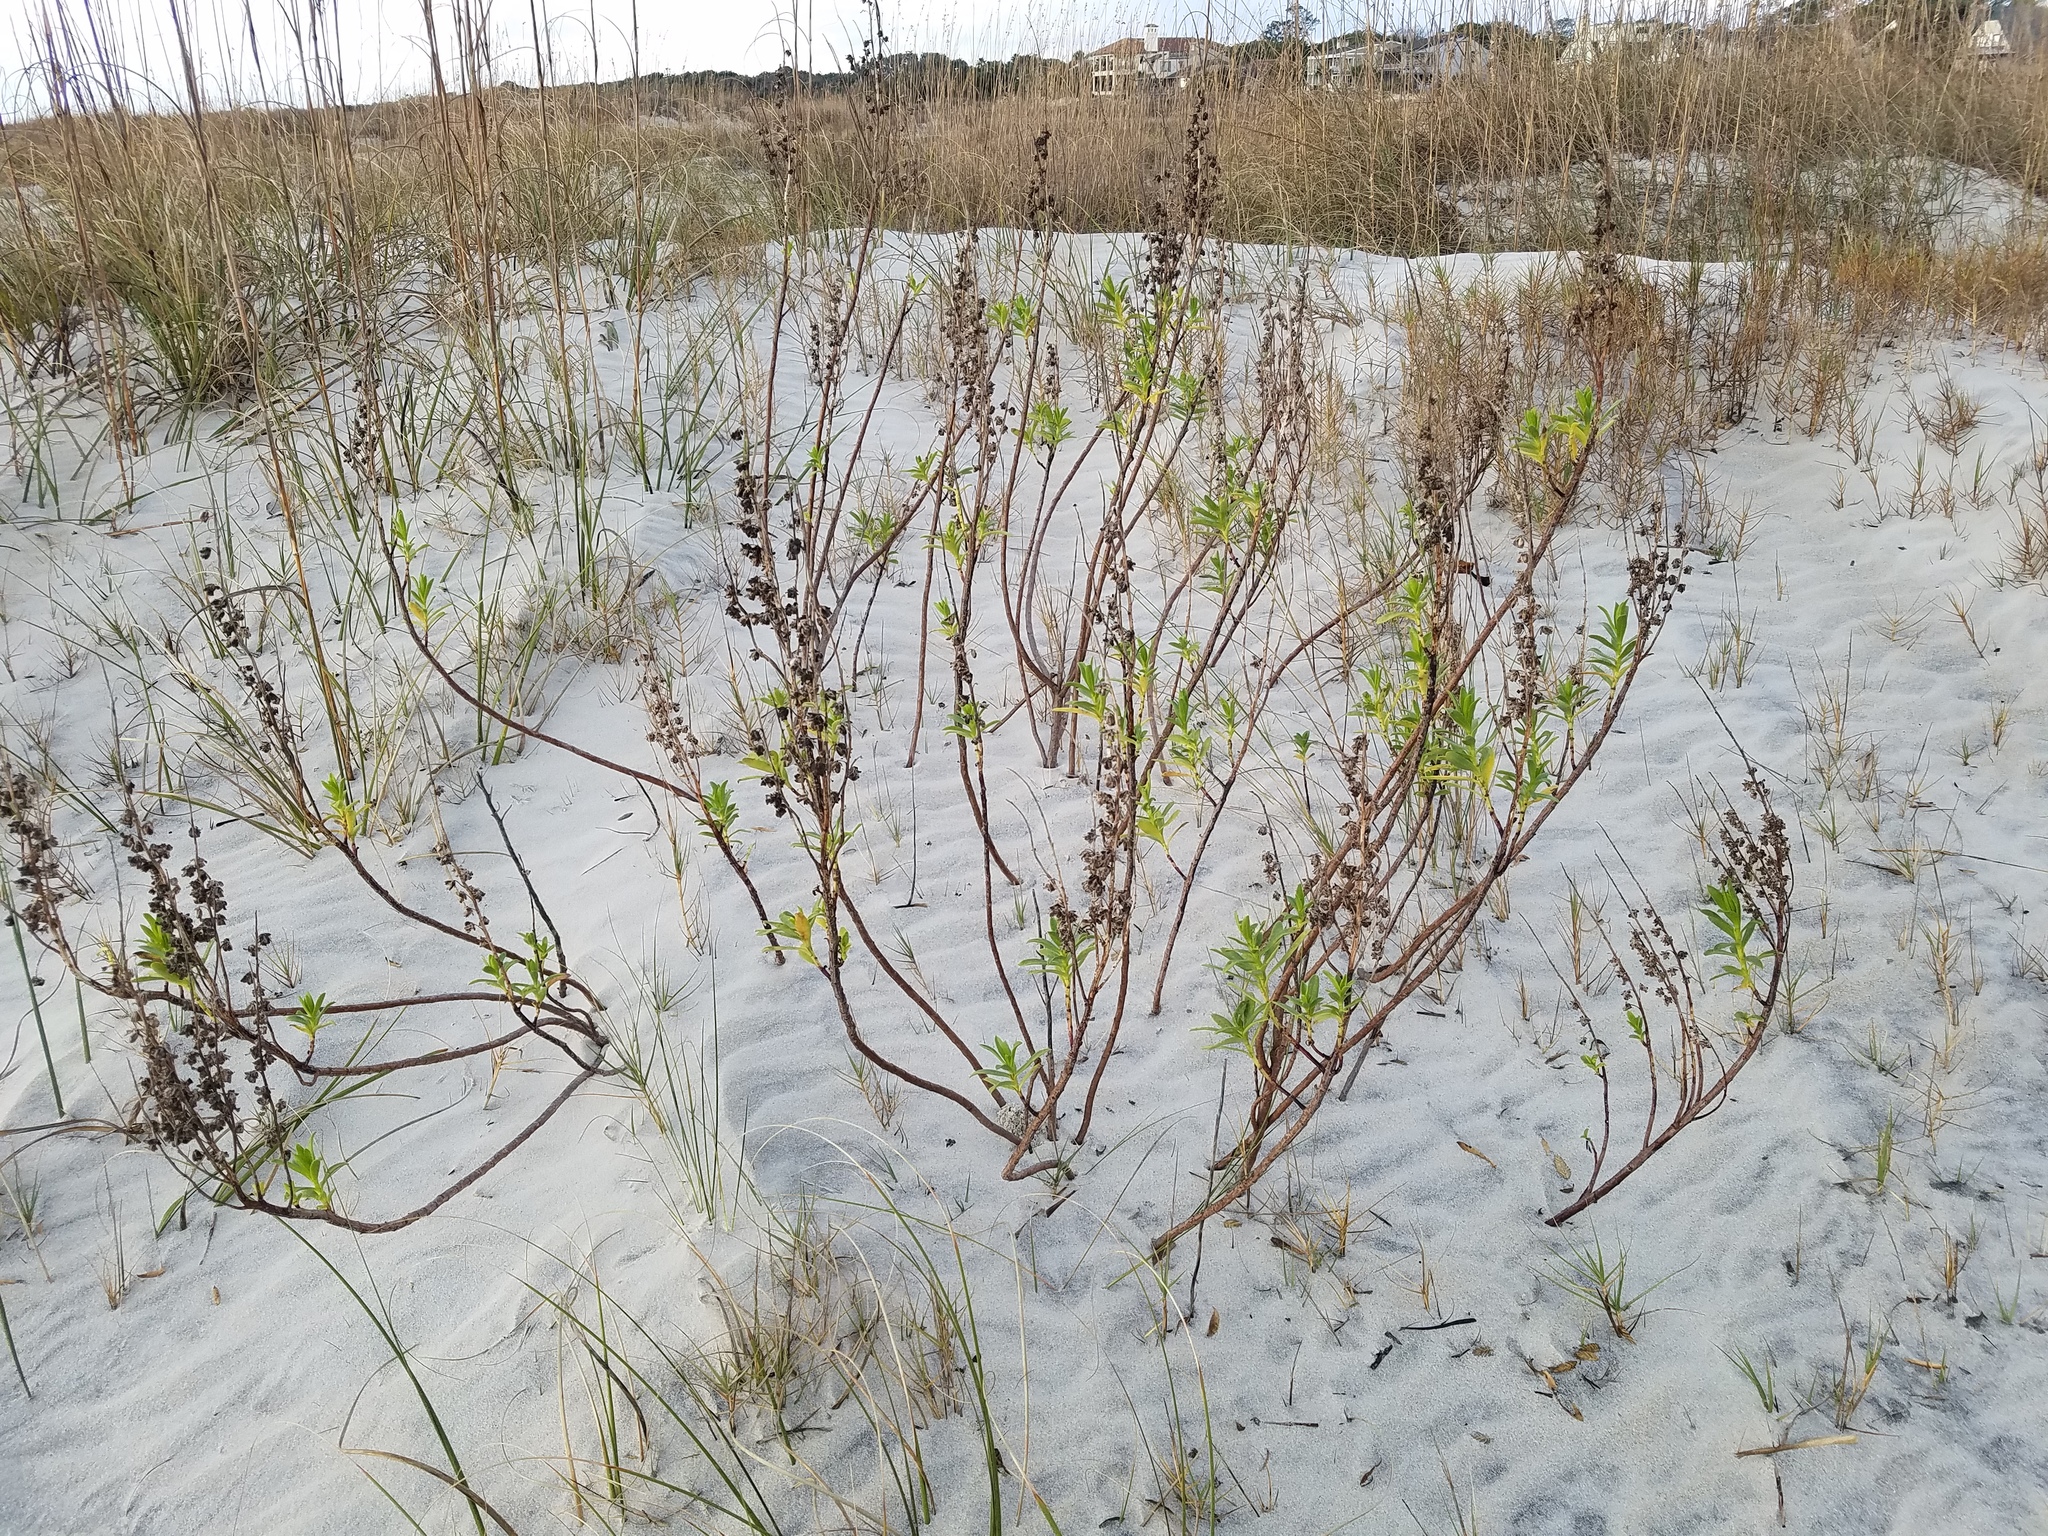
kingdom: Plantae
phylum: Tracheophyta
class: Magnoliopsida
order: Asterales
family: Asteraceae
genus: Iva
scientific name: Iva imbricata
